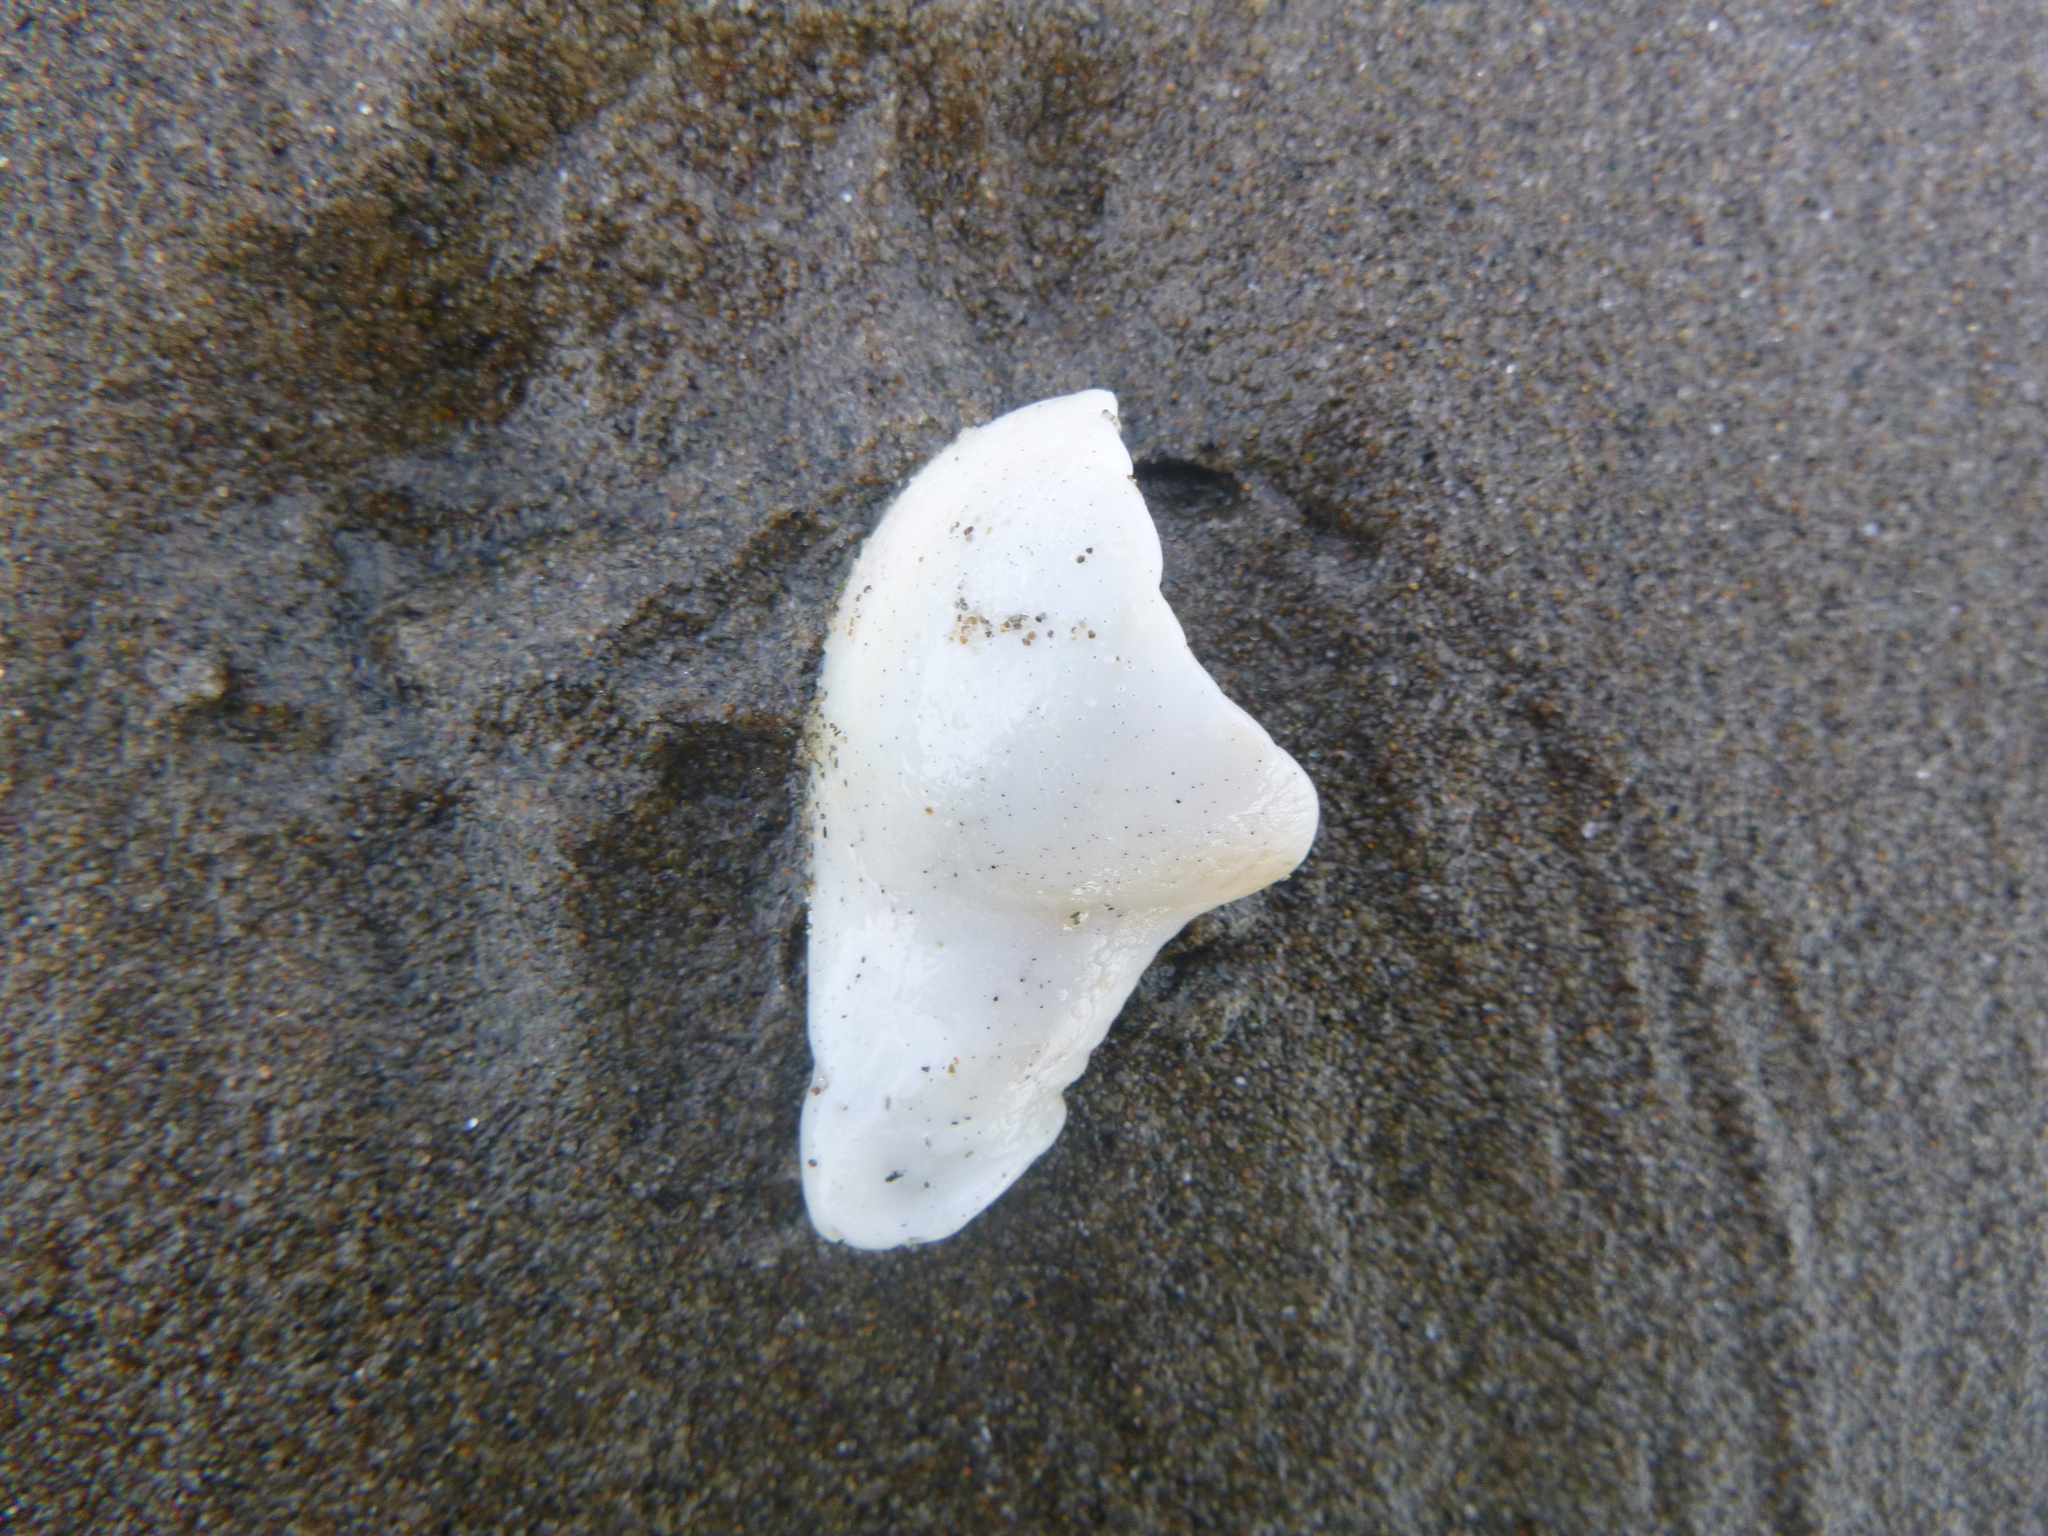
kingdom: Animalia
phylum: Mollusca
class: Gastropoda
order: Littorinimorpha
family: Cassidae
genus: Semicassis
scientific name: Semicassis pyrum
